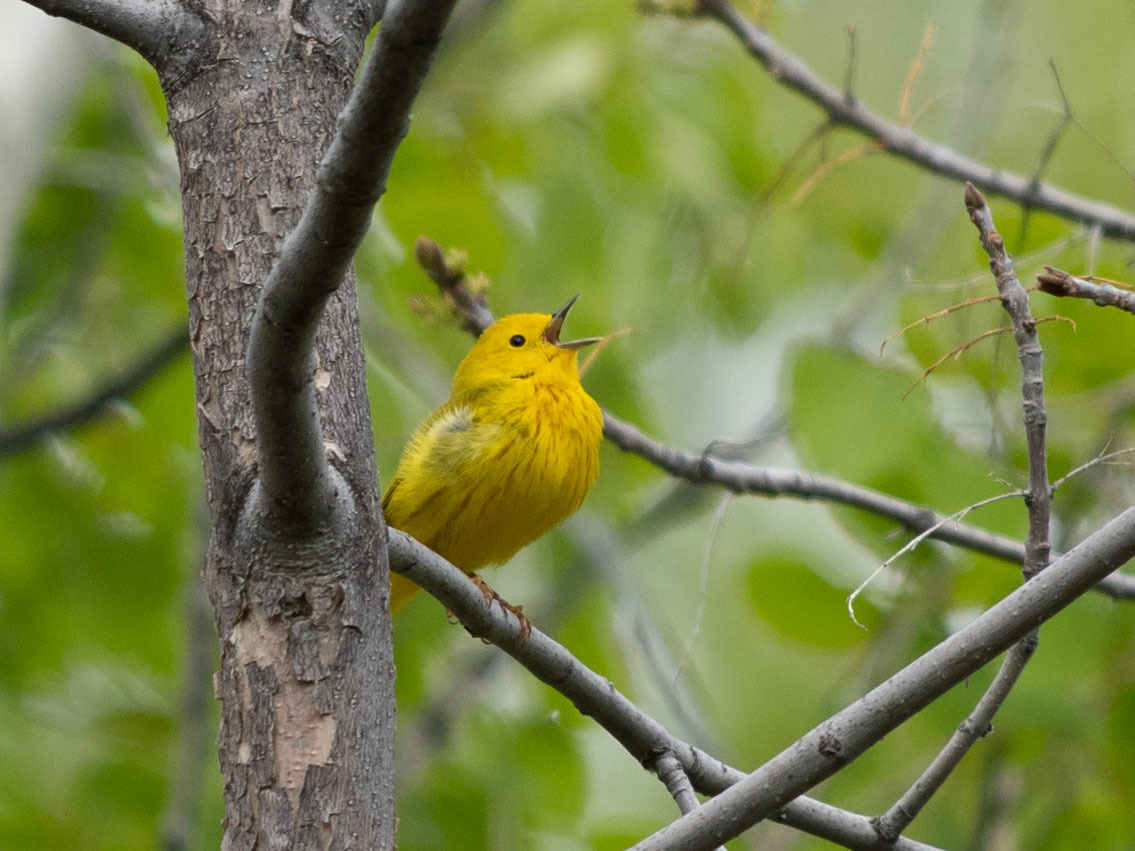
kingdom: Animalia
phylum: Chordata
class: Aves
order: Passeriformes
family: Parulidae
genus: Setophaga
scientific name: Setophaga petechia
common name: Yellow warbler
